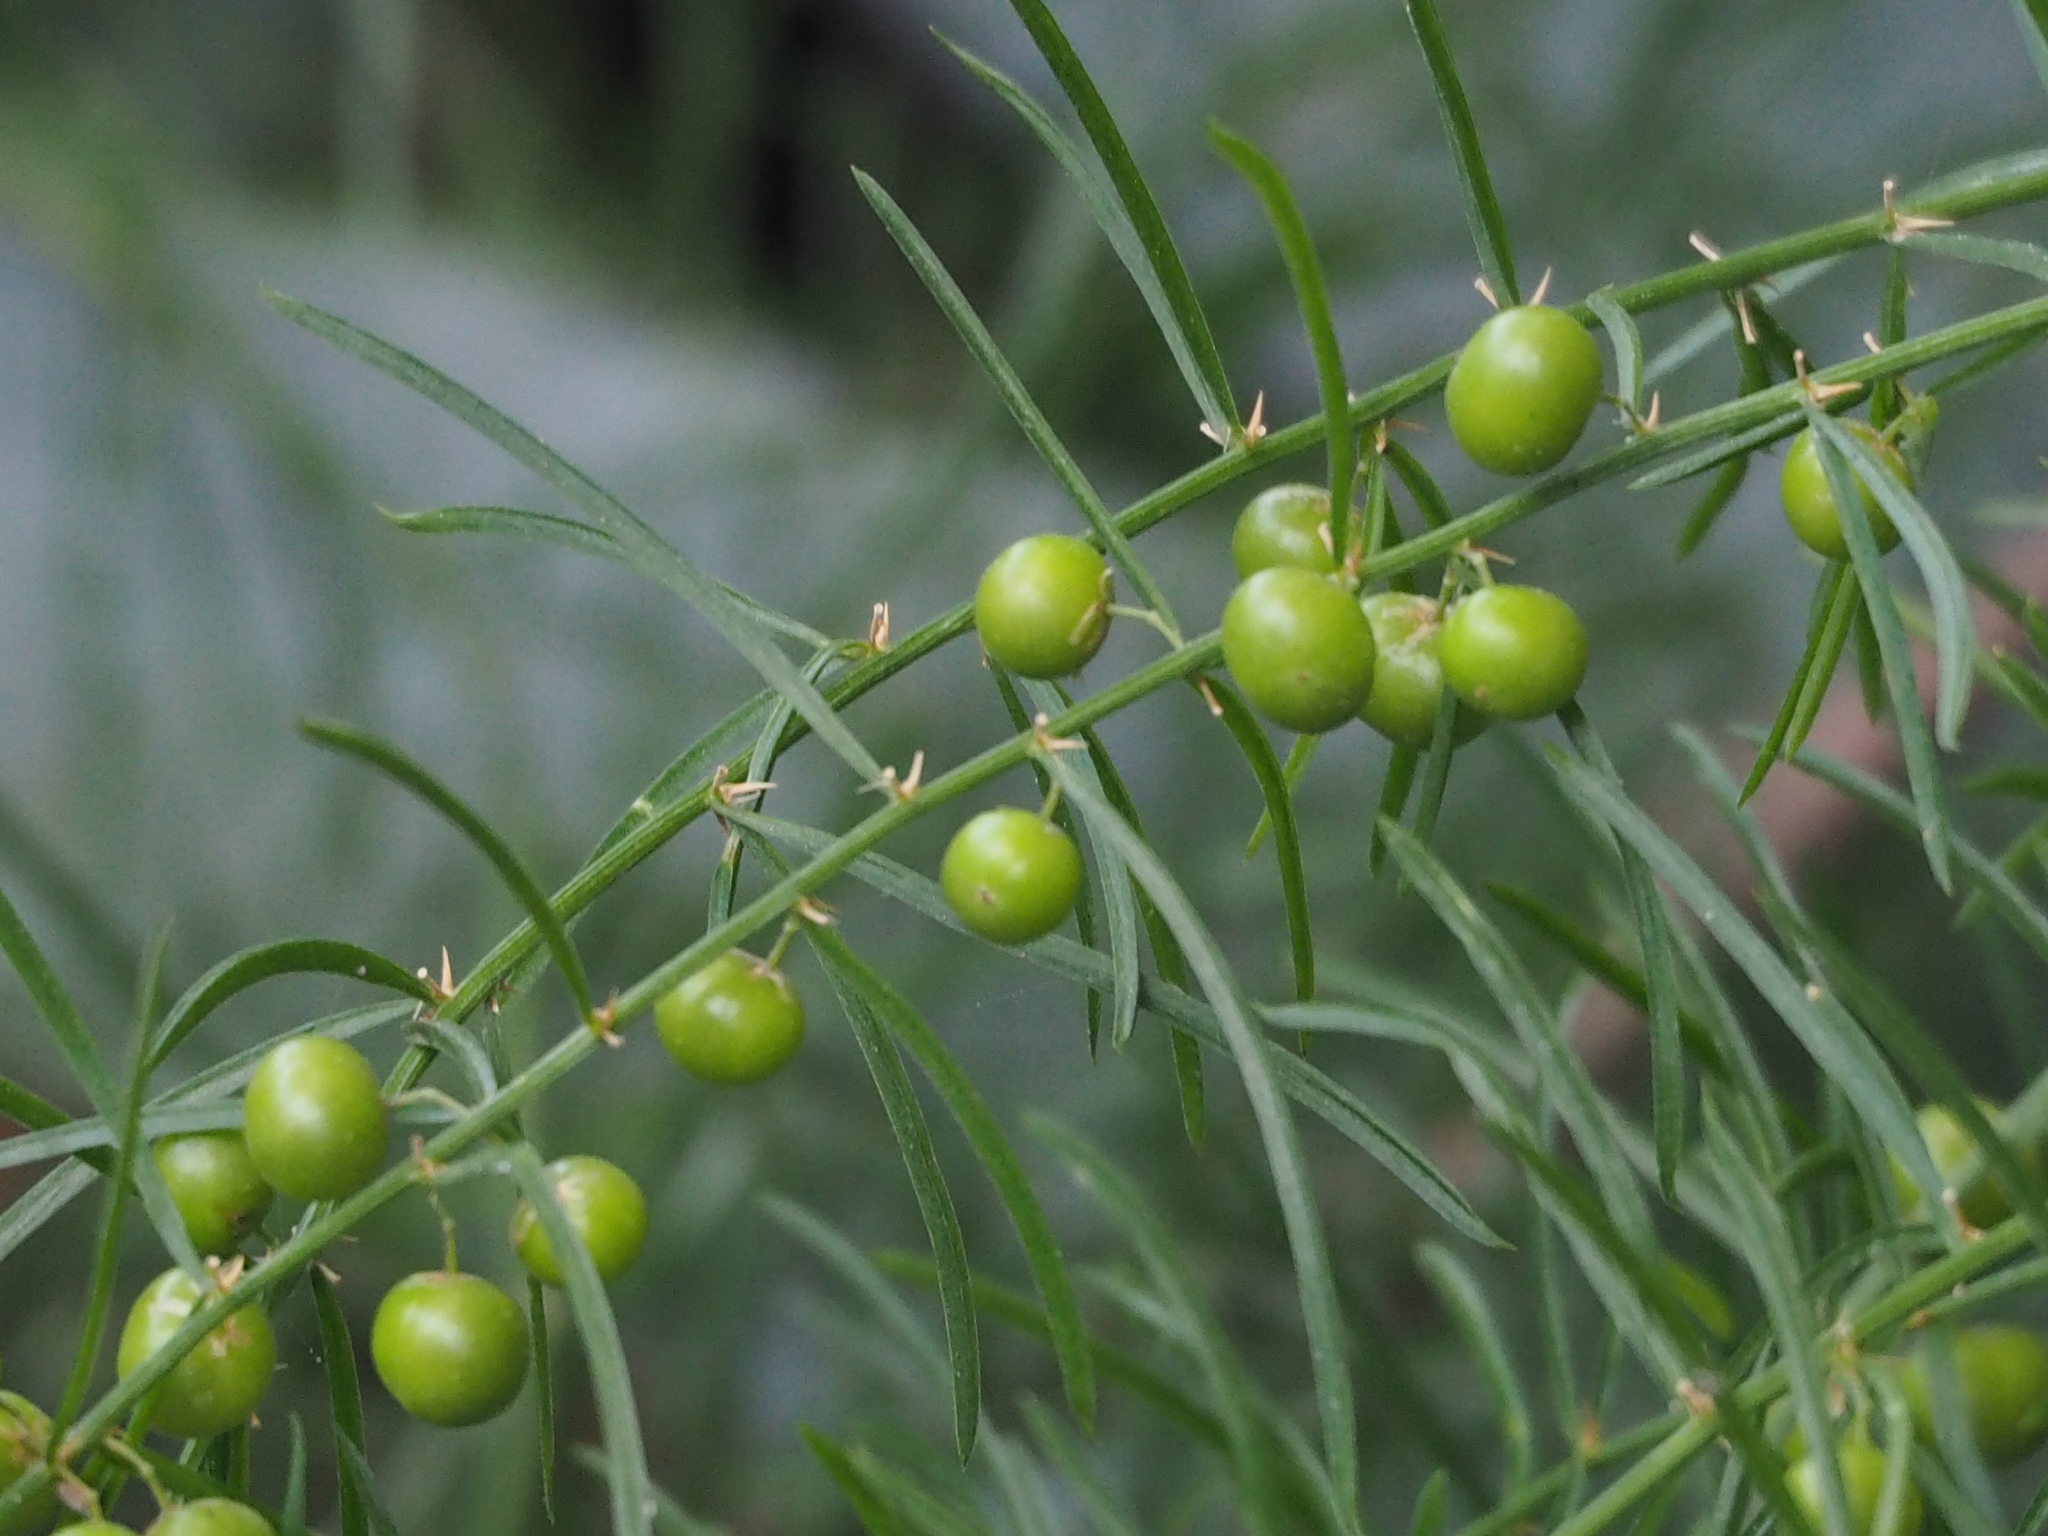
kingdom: Plantae
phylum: Tracheophyta
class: Liliopsida
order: Asparagales
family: Asparagaceae
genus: Asparagus
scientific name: Asparagus cochinchinensis
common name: Chinese asparagus
